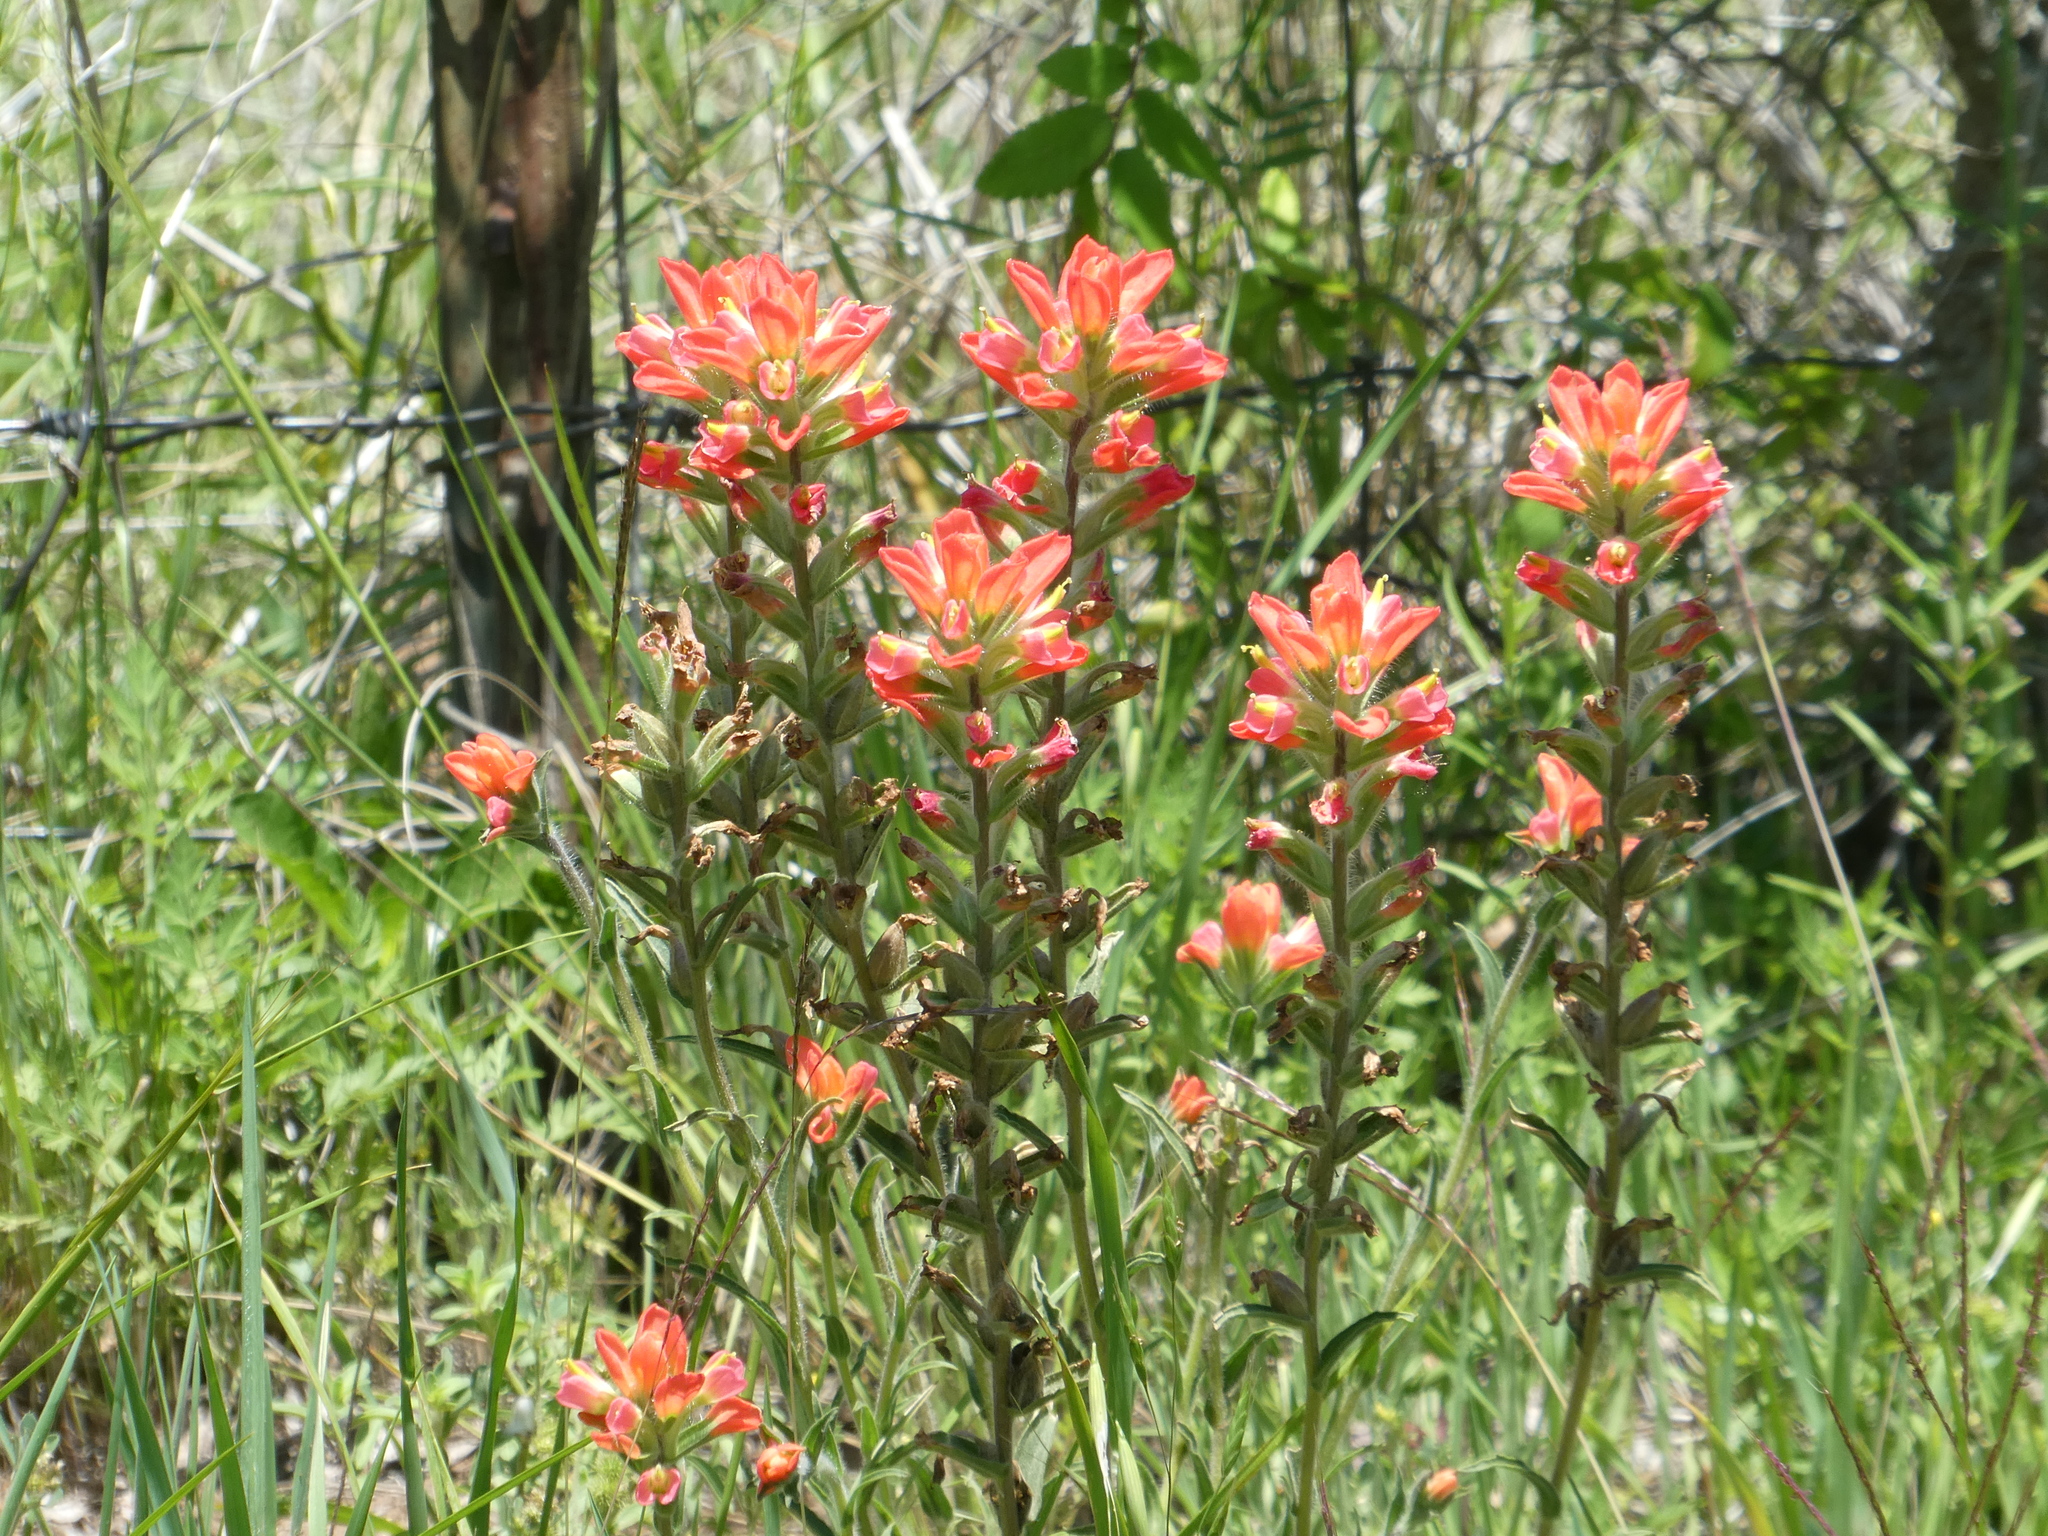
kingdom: Plantae
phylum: Tracheophyta
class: Magnoliopsida
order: Lamiales
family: Orobanchaceae
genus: Castilleja
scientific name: Castilleja indivisa
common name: Texas paintbrush
